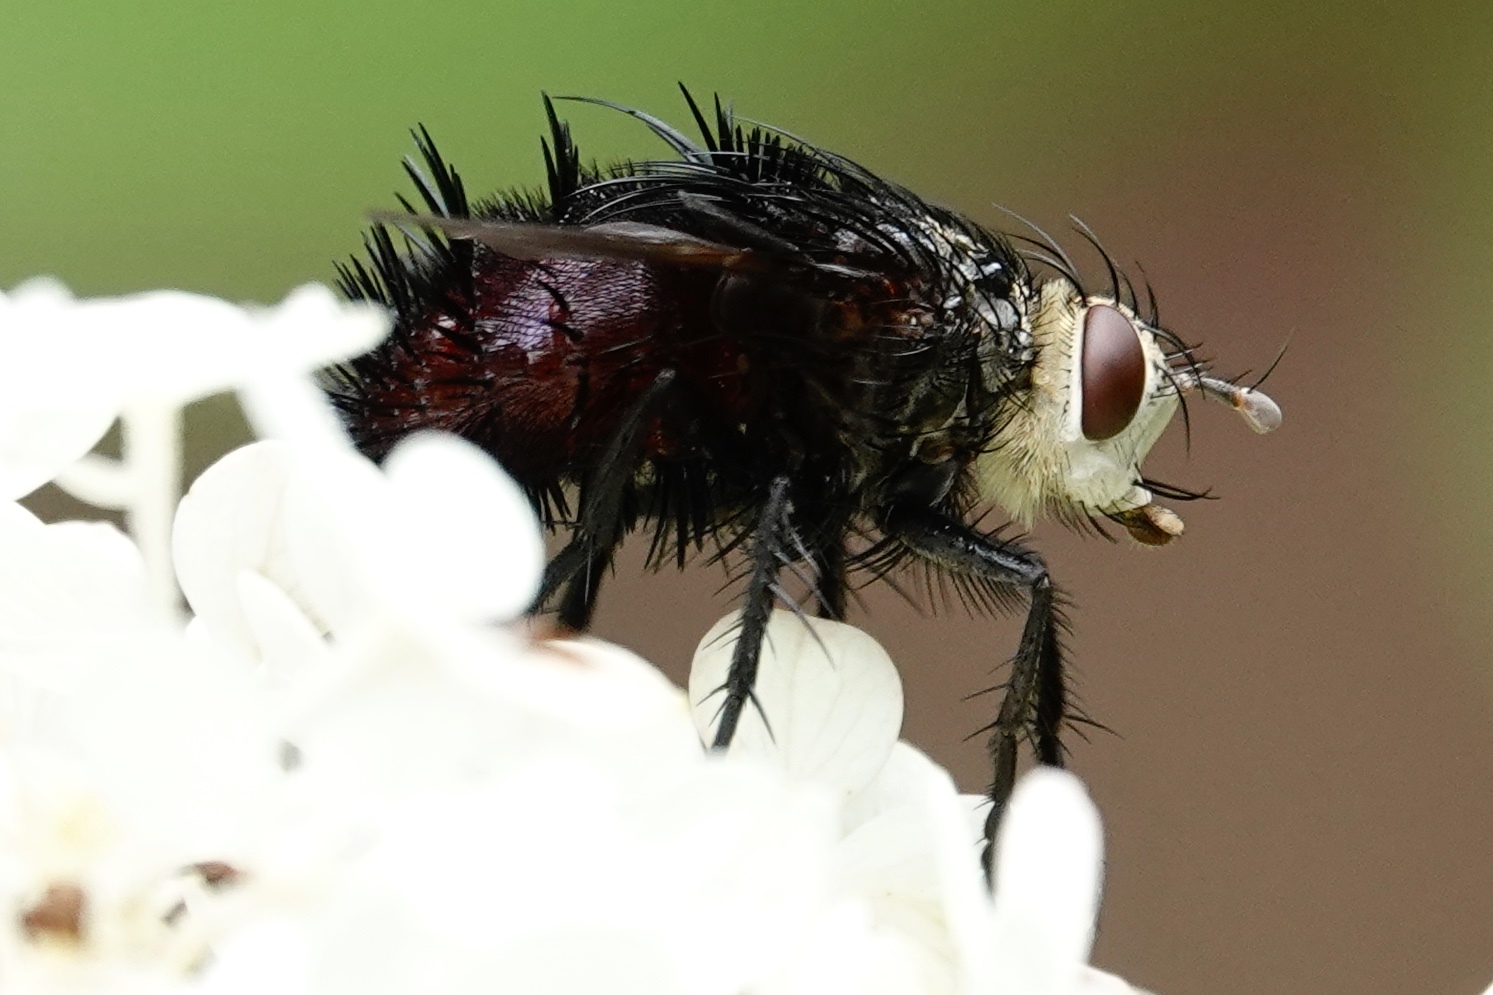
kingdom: Animalia
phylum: Arthropoda
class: Insecta
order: Diptera
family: Tachinidae
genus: Juriniopsis
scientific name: Juriniopsis adusta
